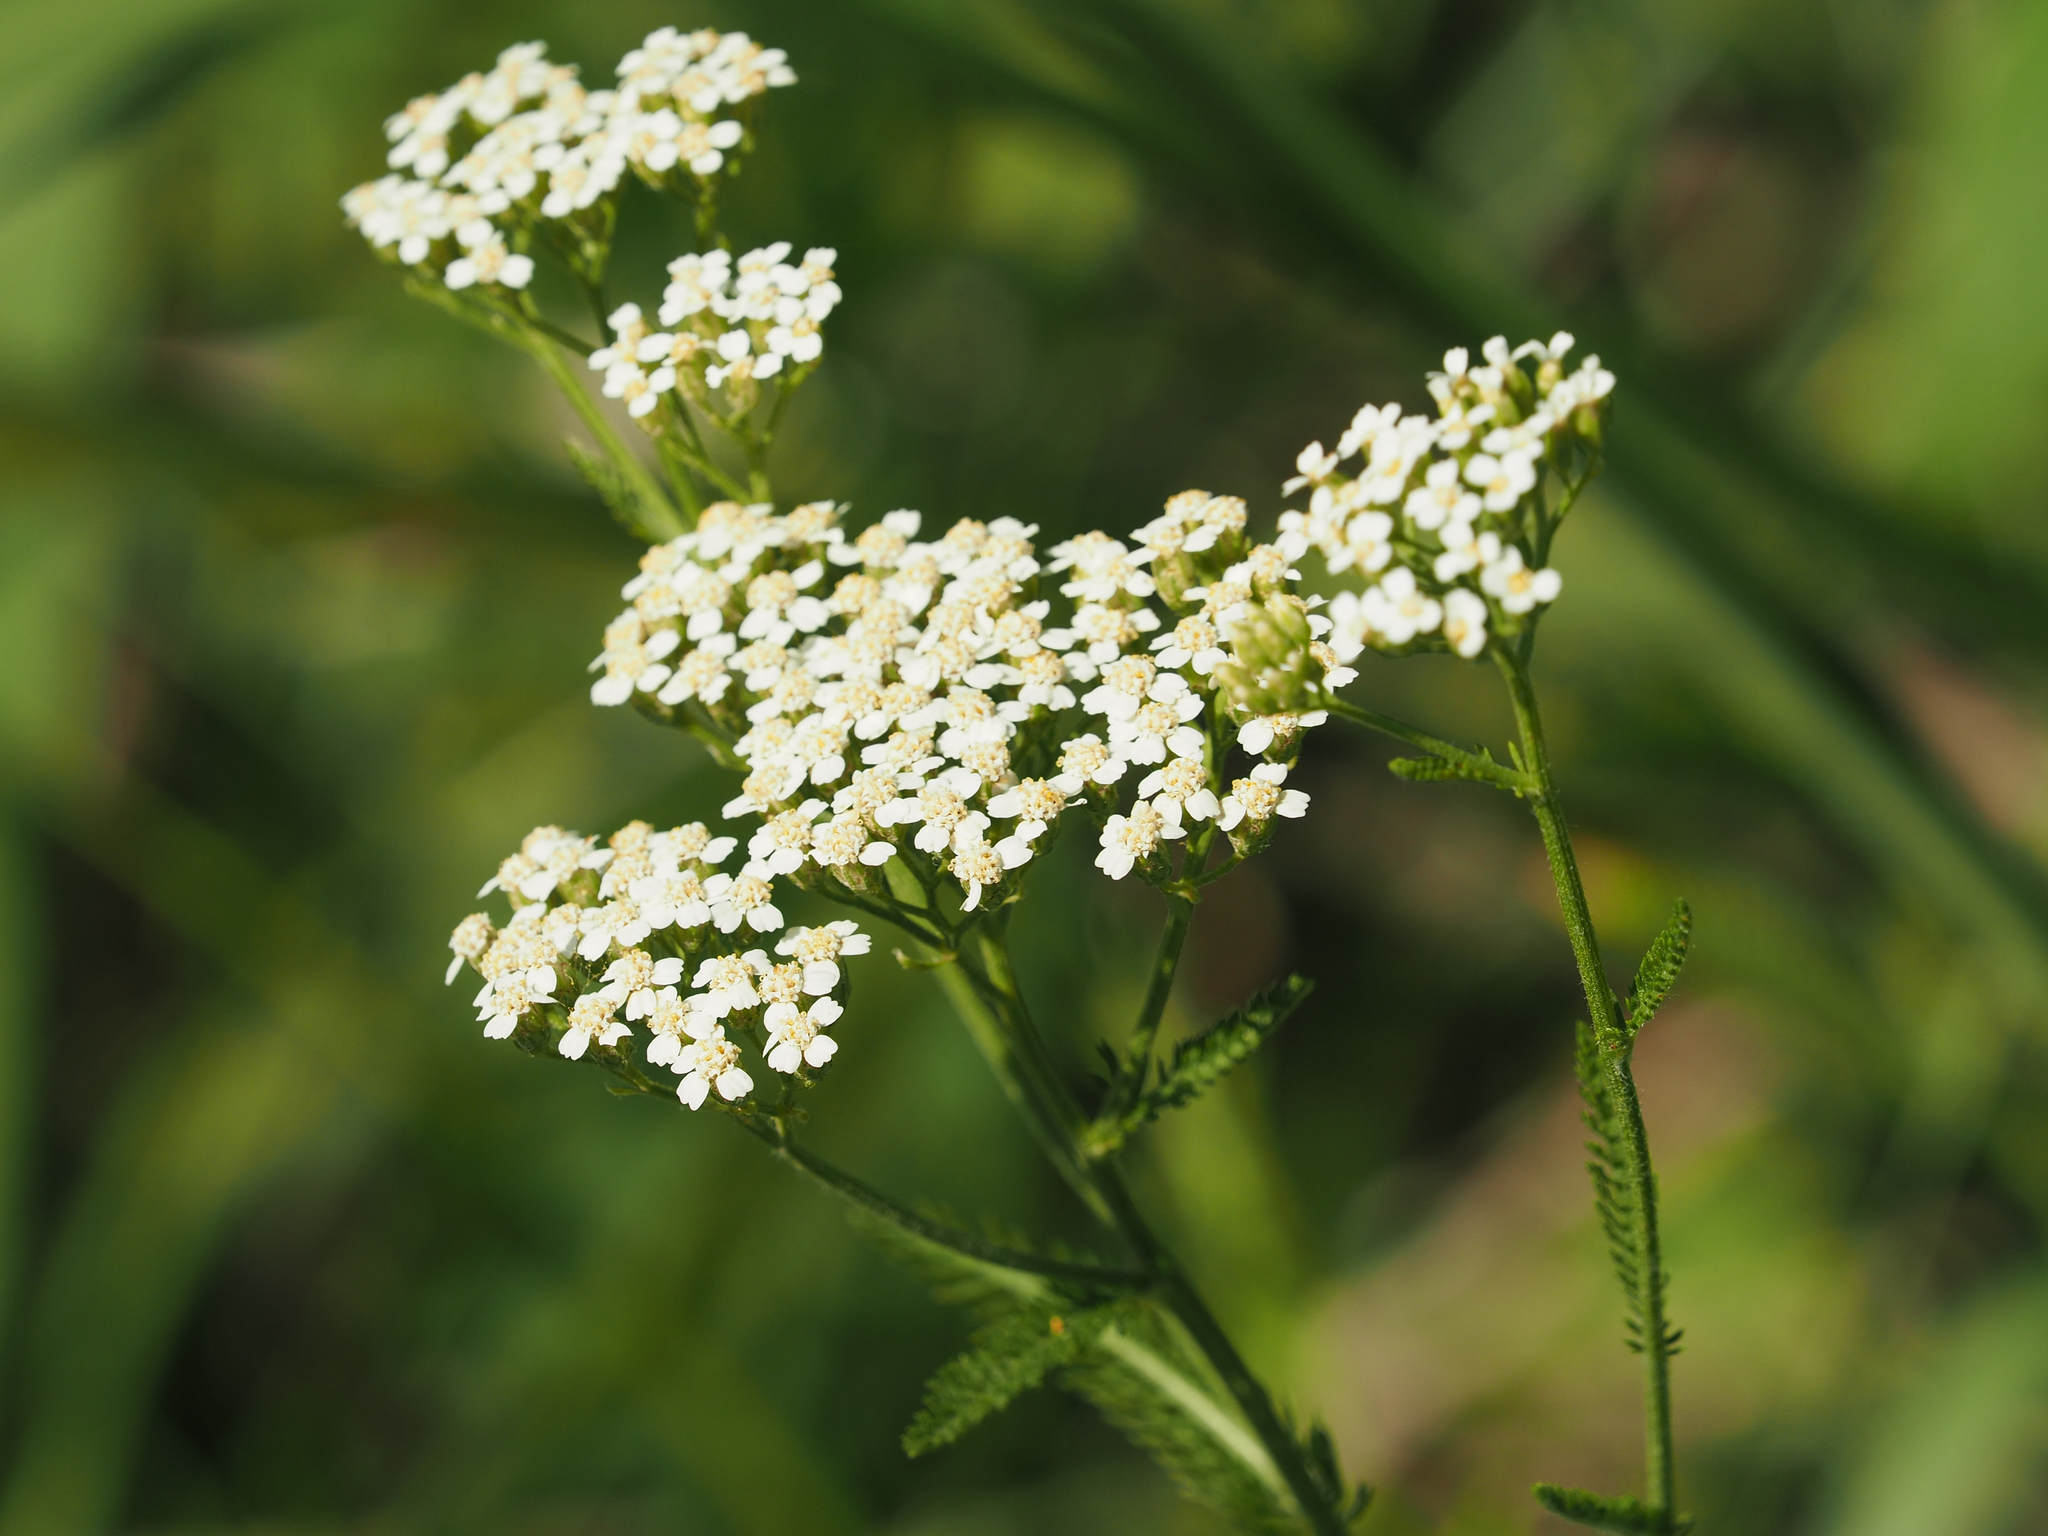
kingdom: Plantae
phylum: Tracheophyta
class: Magnoliopsida
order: Asterales
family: Asteraceae
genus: Achillea
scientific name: Achillea millefolium
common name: Yarrow
